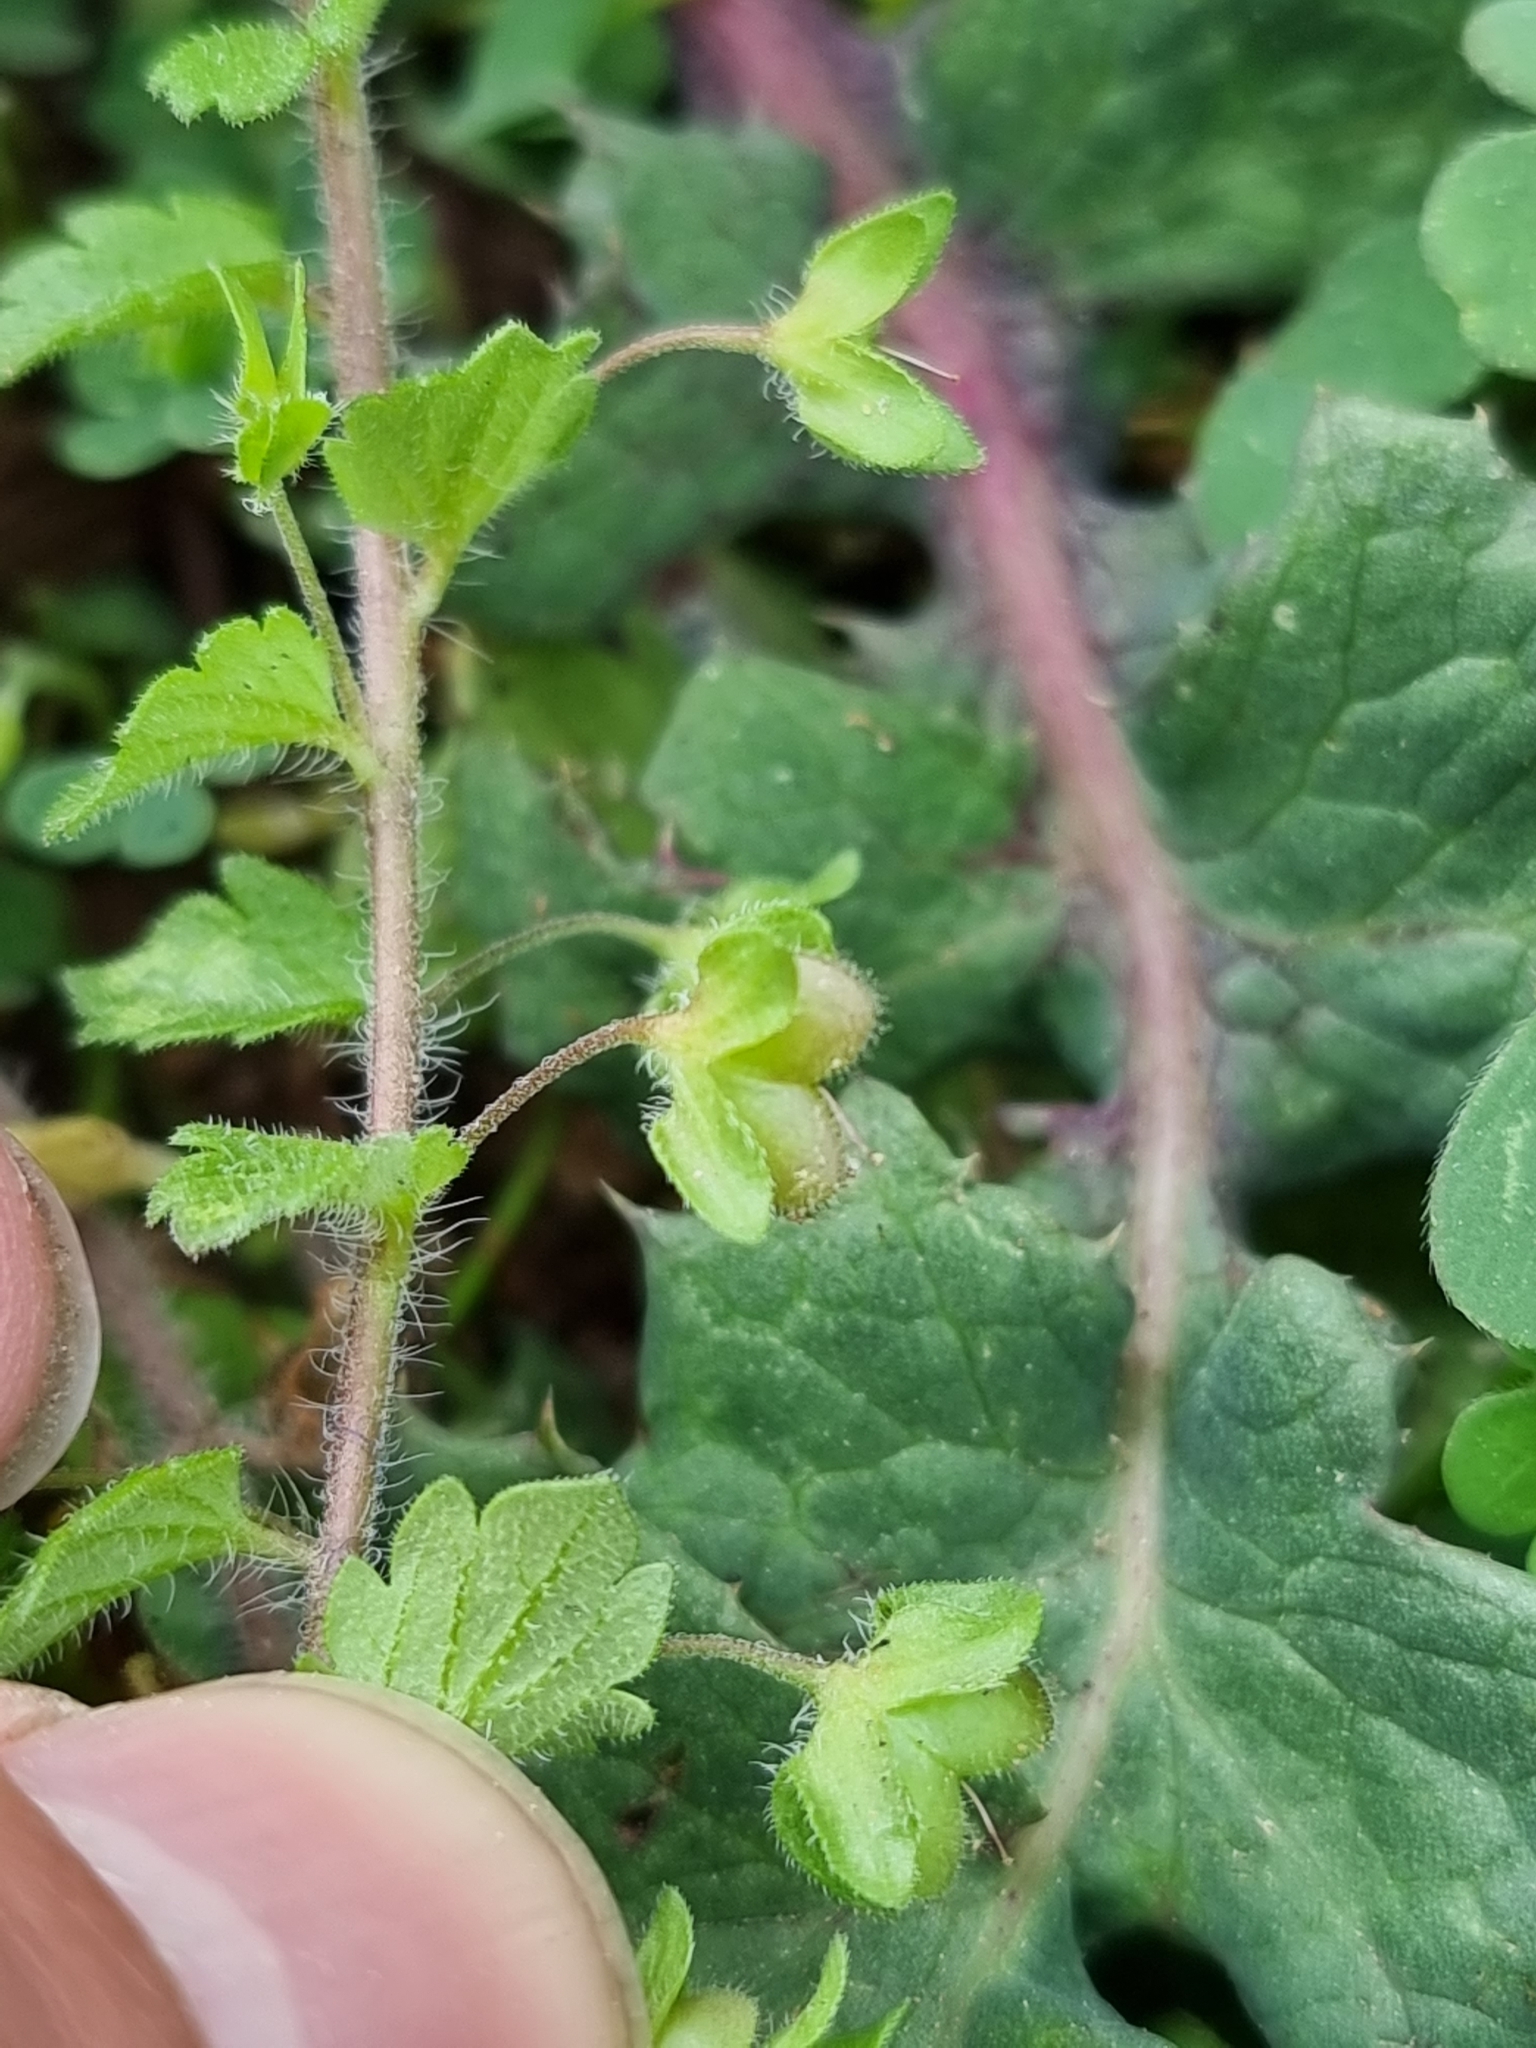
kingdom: Plantae
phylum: Tracheophyta
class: Magnoliopsida
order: Lamiales
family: Plantaginaceae
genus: Veronica
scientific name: Veronica persica
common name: Common field-speedwell
